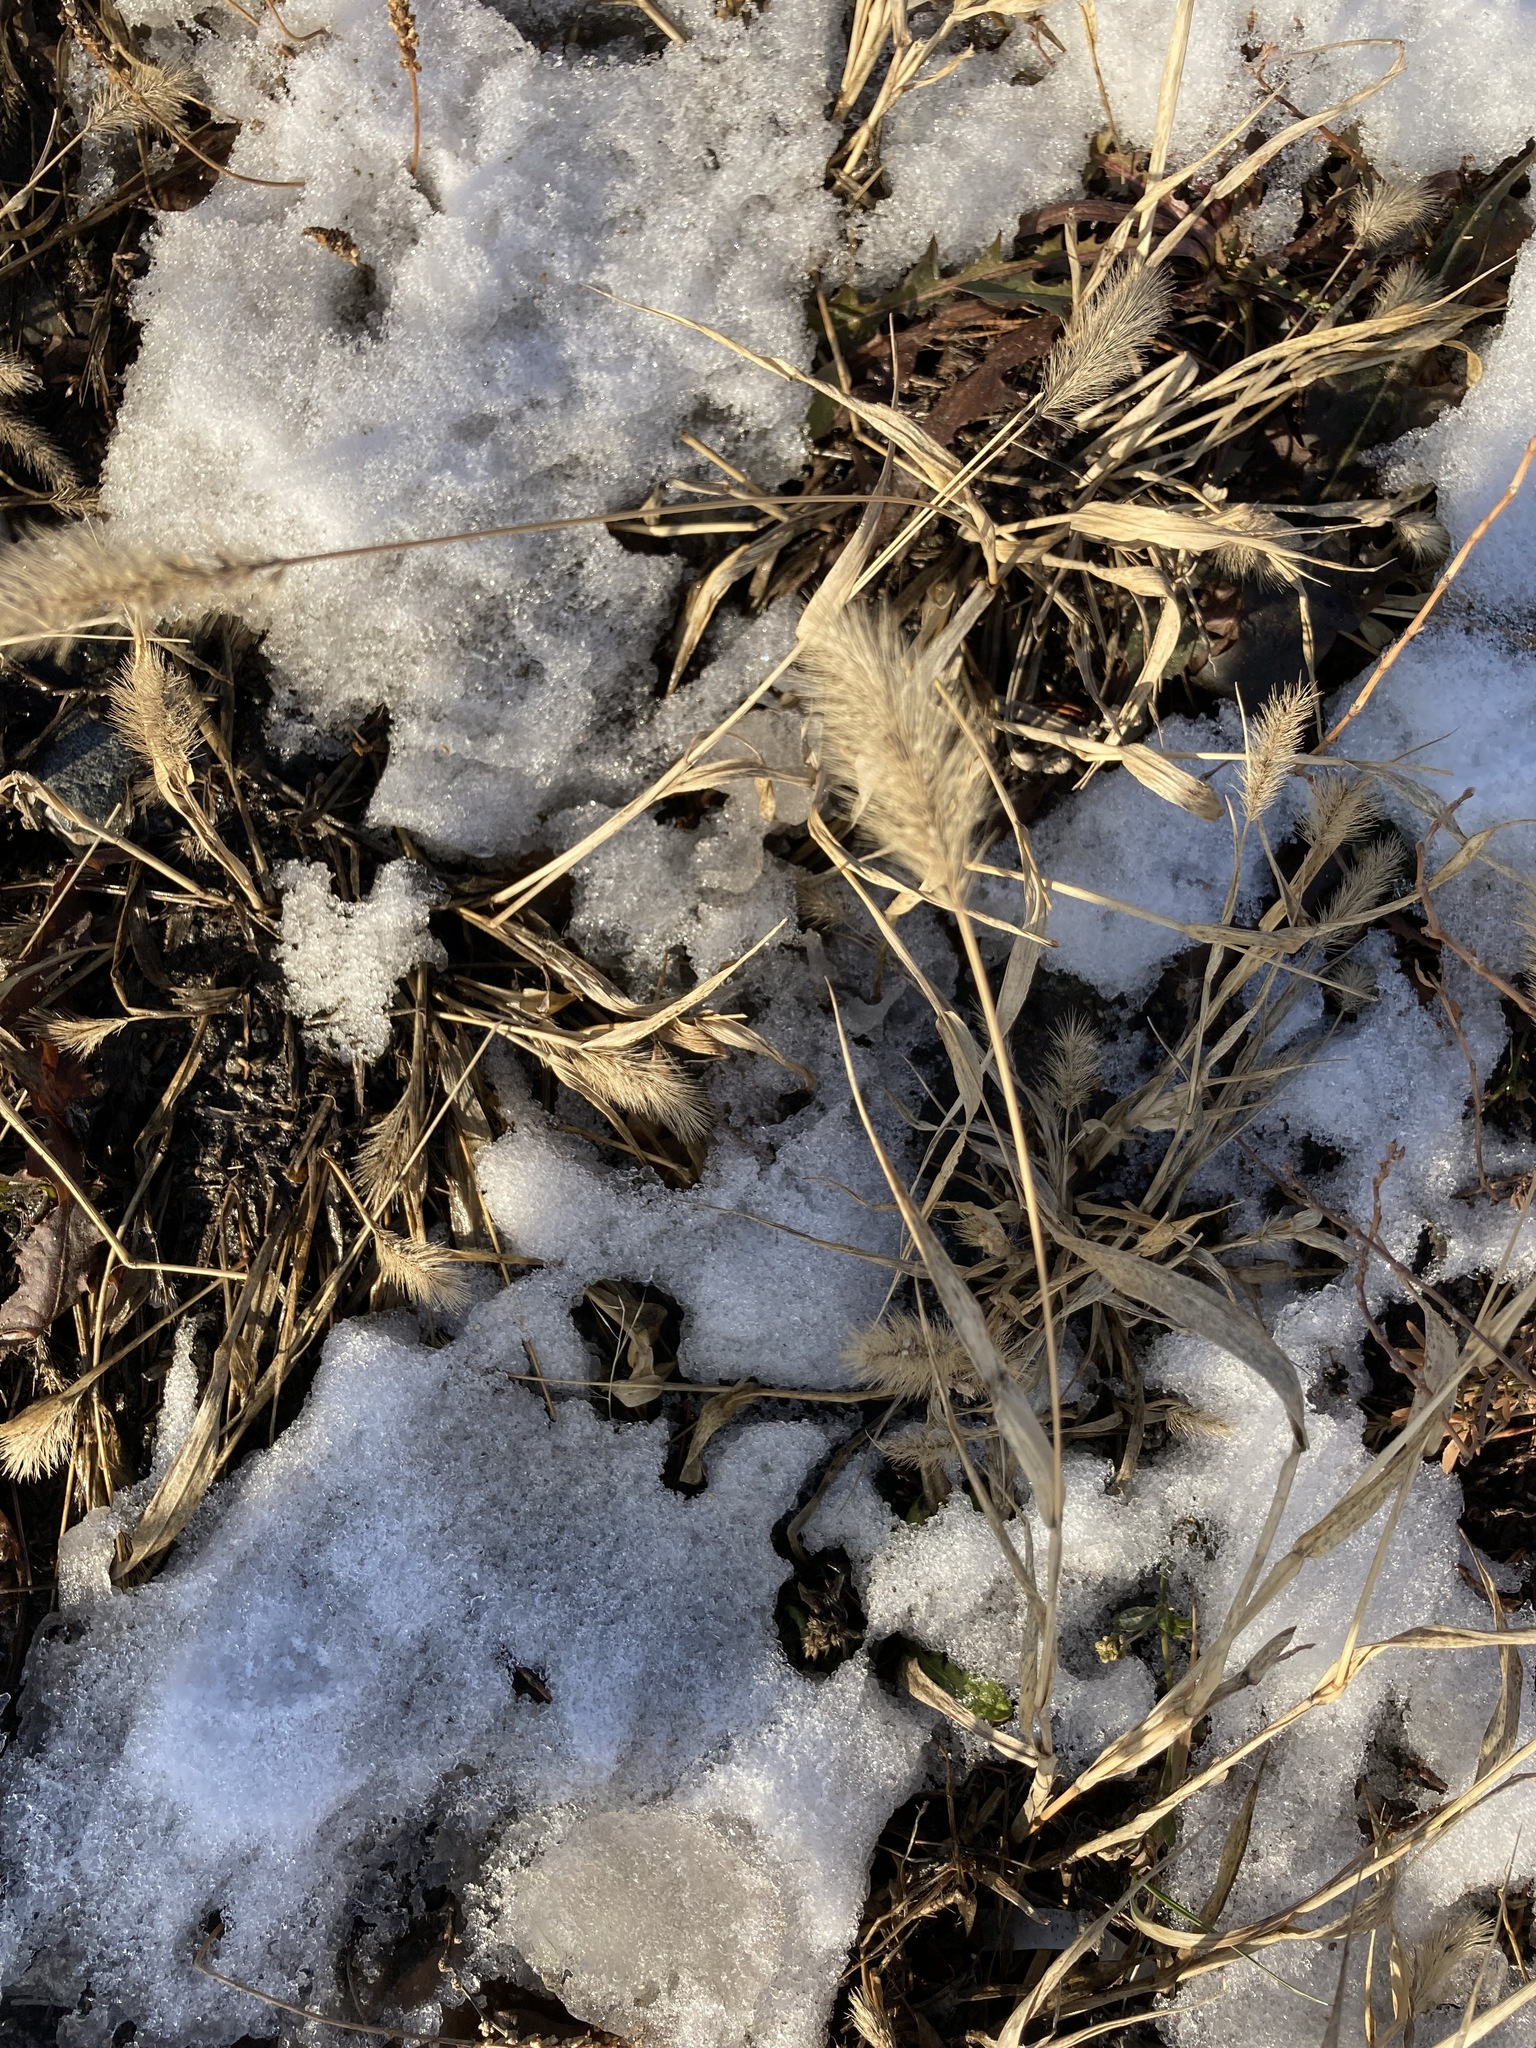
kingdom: Plantae
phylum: Tracheophyta
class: Liliopsida
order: Poales
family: Poaceae
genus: Setaria
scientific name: Setaria viridis
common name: Green bristlegrass
